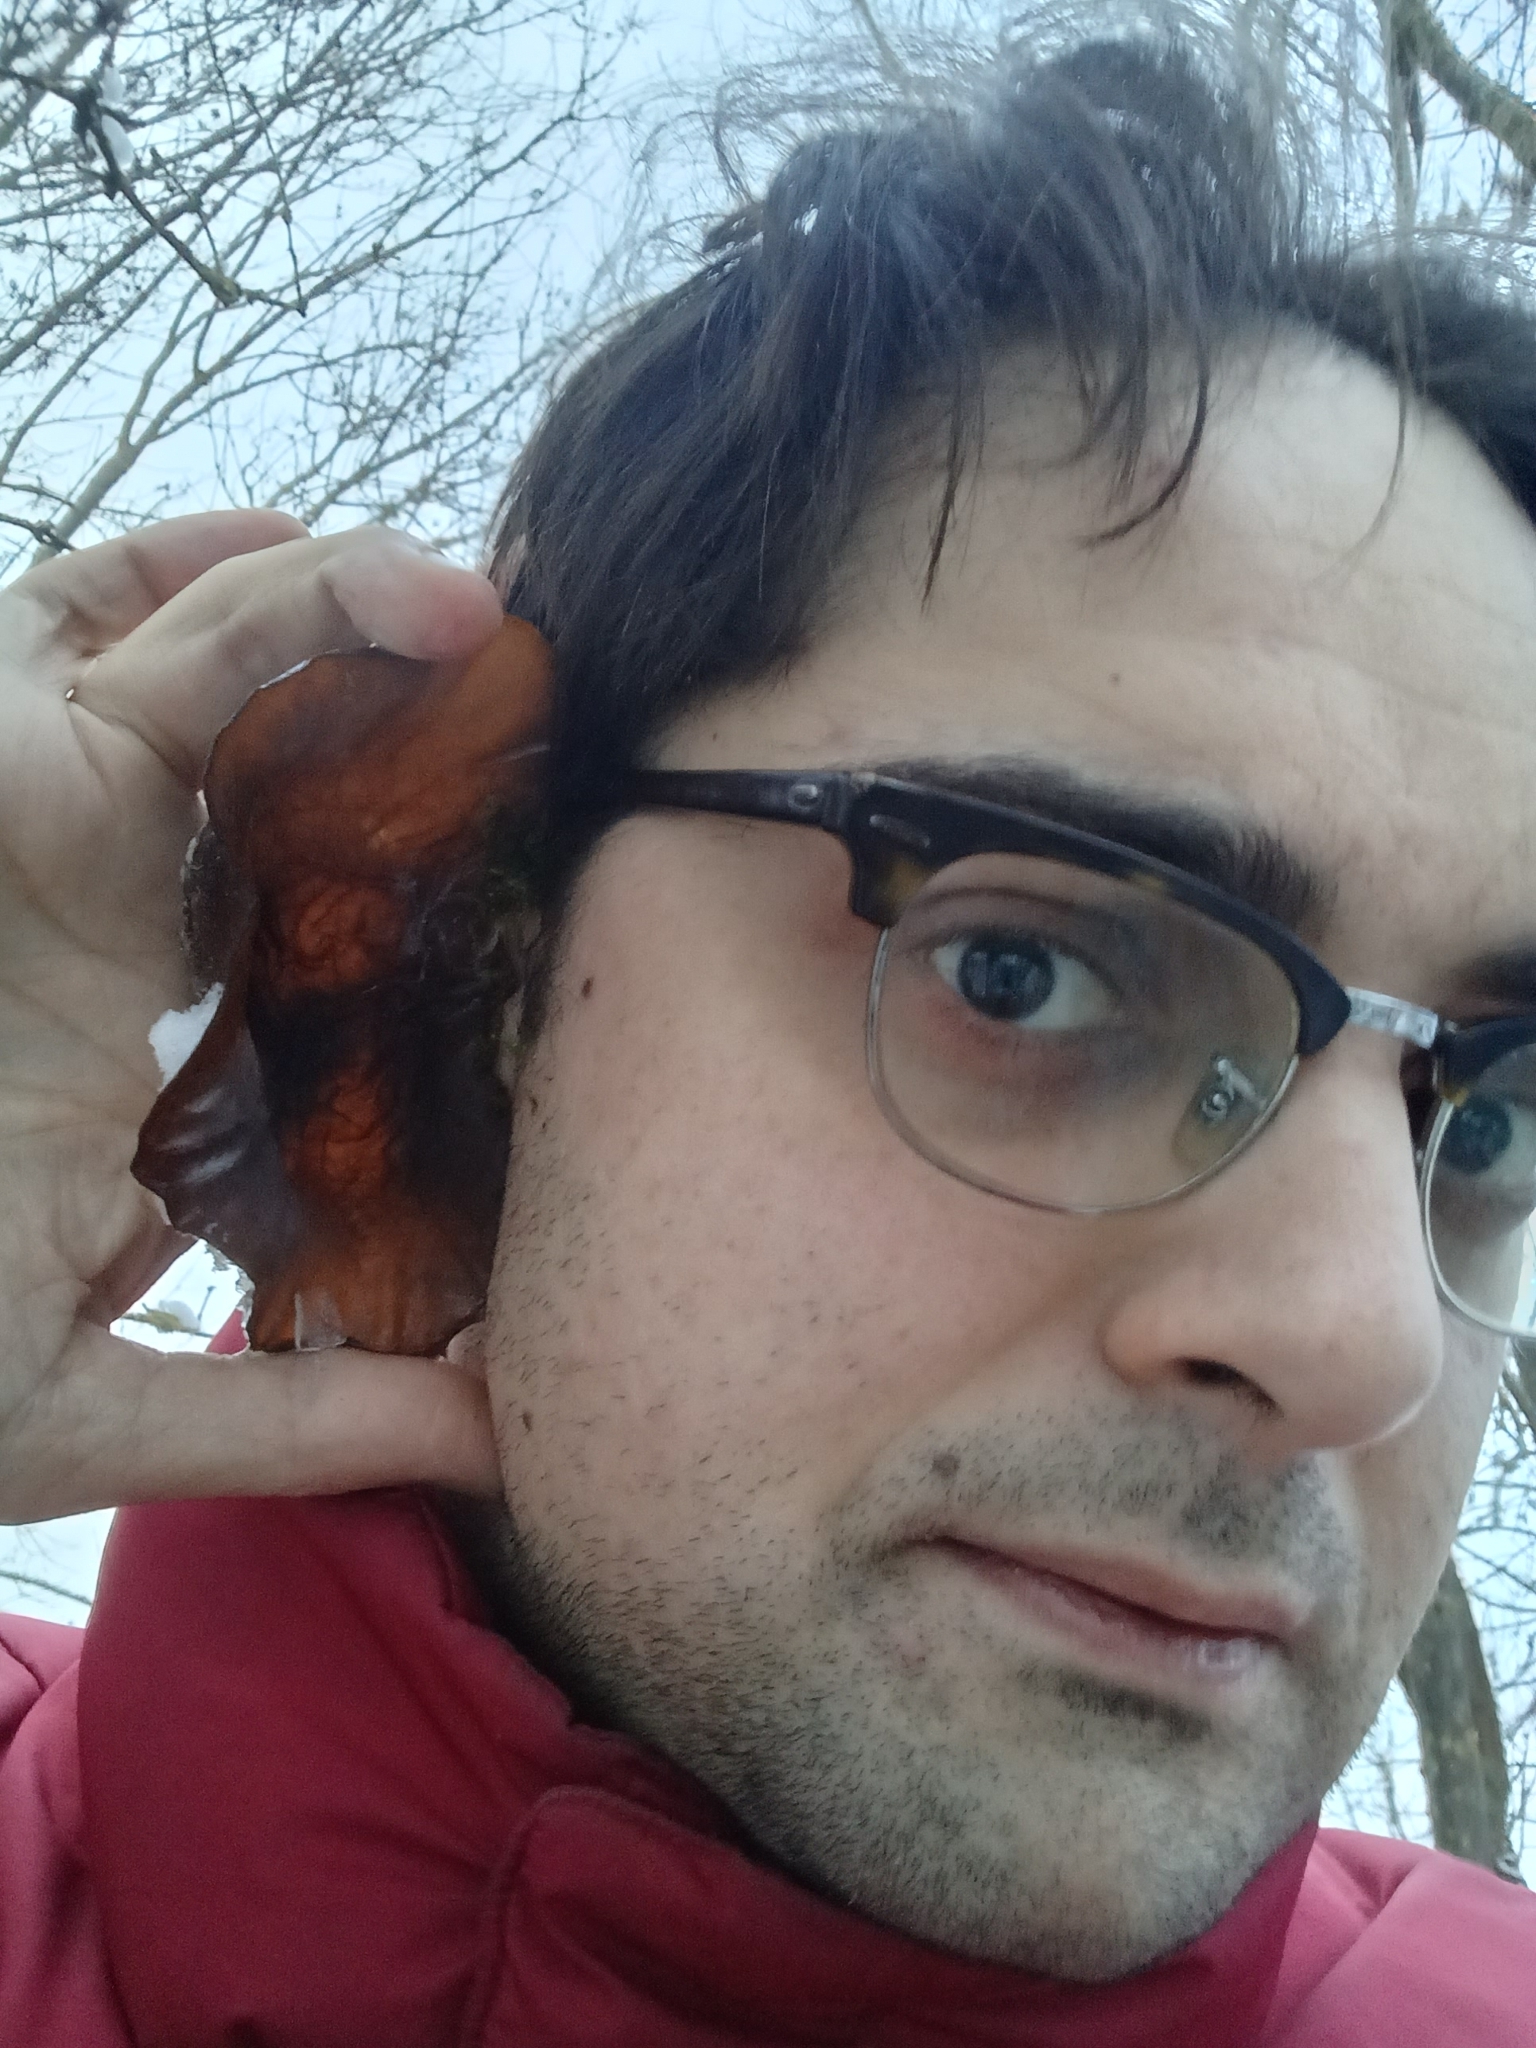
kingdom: Fungi
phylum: Basidiomycota
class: Agaricomycetes
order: Auriculariales
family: Auriculariaceae
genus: Auricularia
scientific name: Auricularia auricula-judae
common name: Jelly ear
